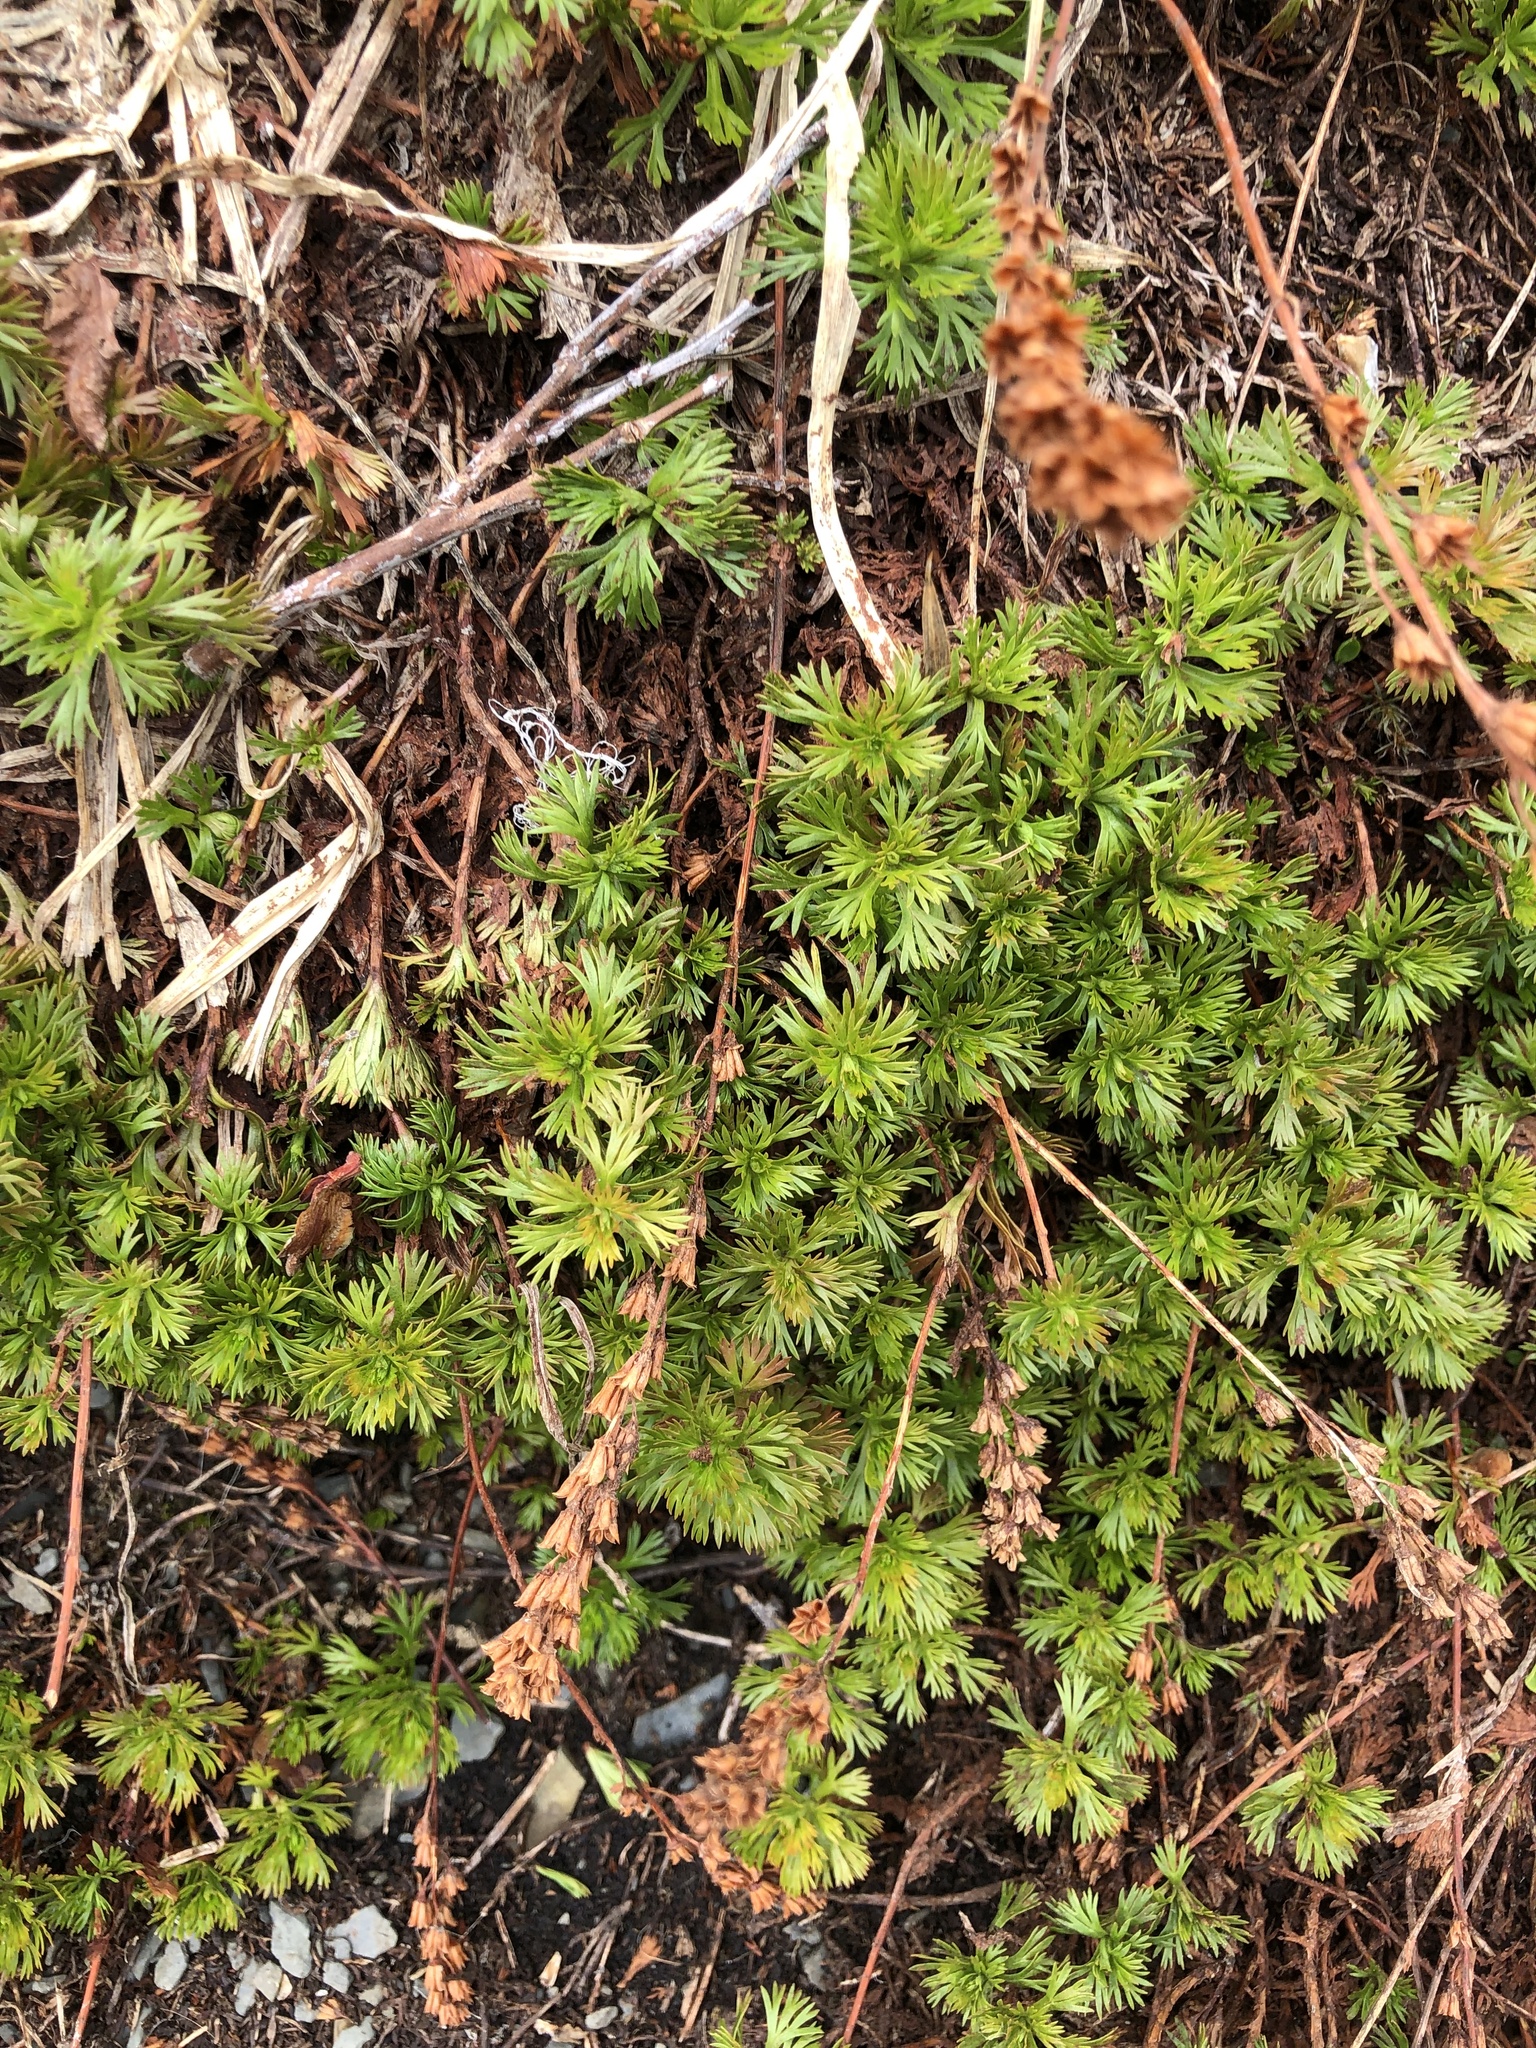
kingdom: Plantae
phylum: Tracheophyta
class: Magnoliopsida
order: Rosales
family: Rosaceae
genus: Luetkea
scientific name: Luetkea pectinata
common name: Partridgefoot
